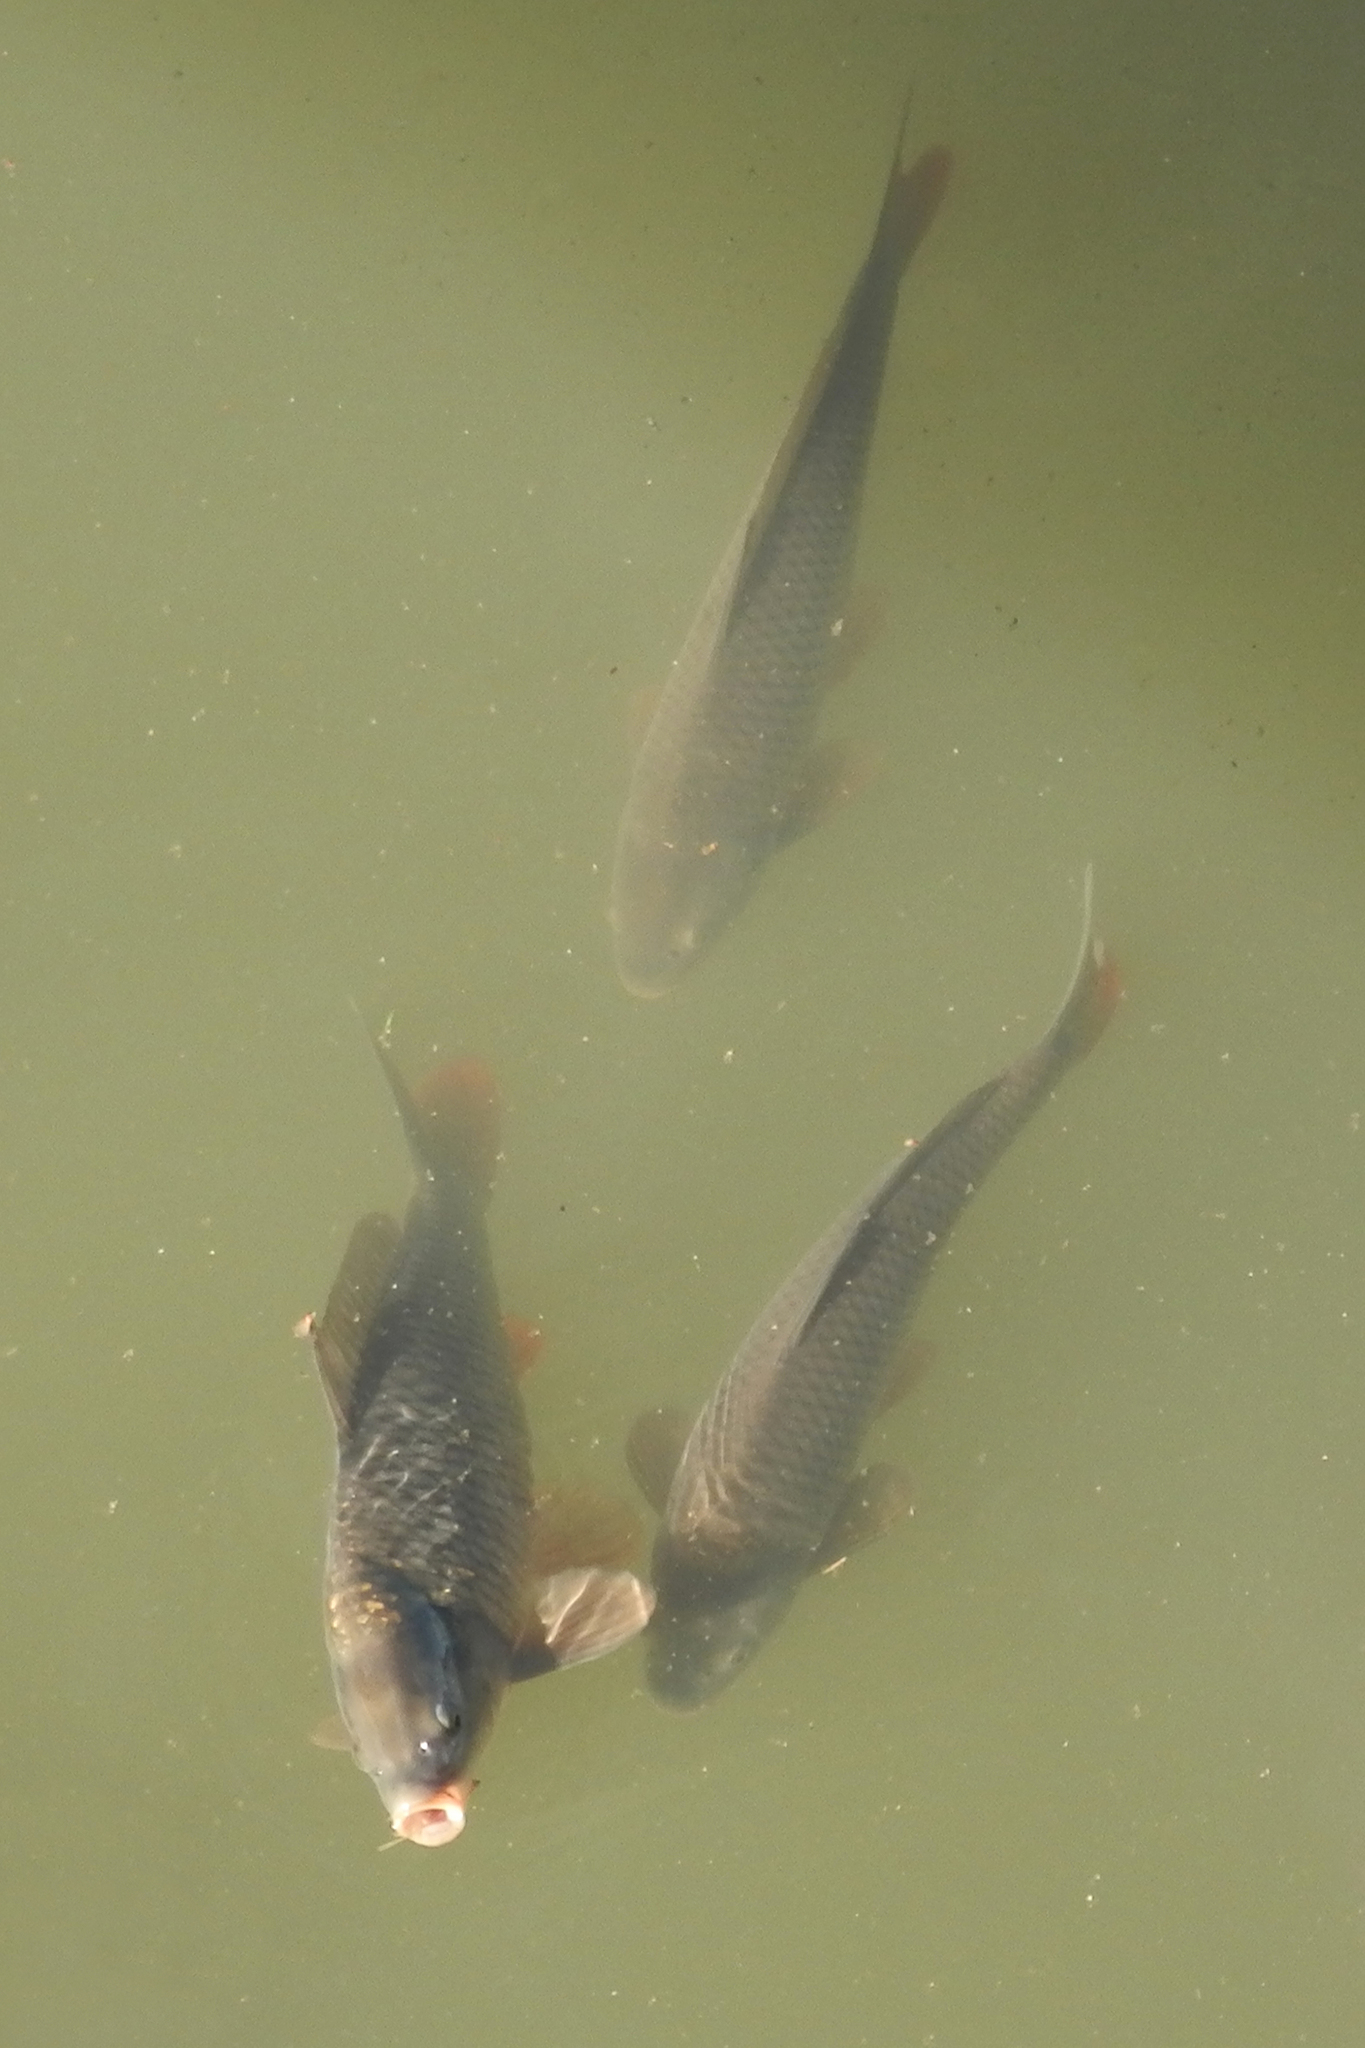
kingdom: Animalia
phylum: Chordata
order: Cypriniformes
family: Cyprinidae
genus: Cyprinus
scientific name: Cyprinus carpio
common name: Common carp
